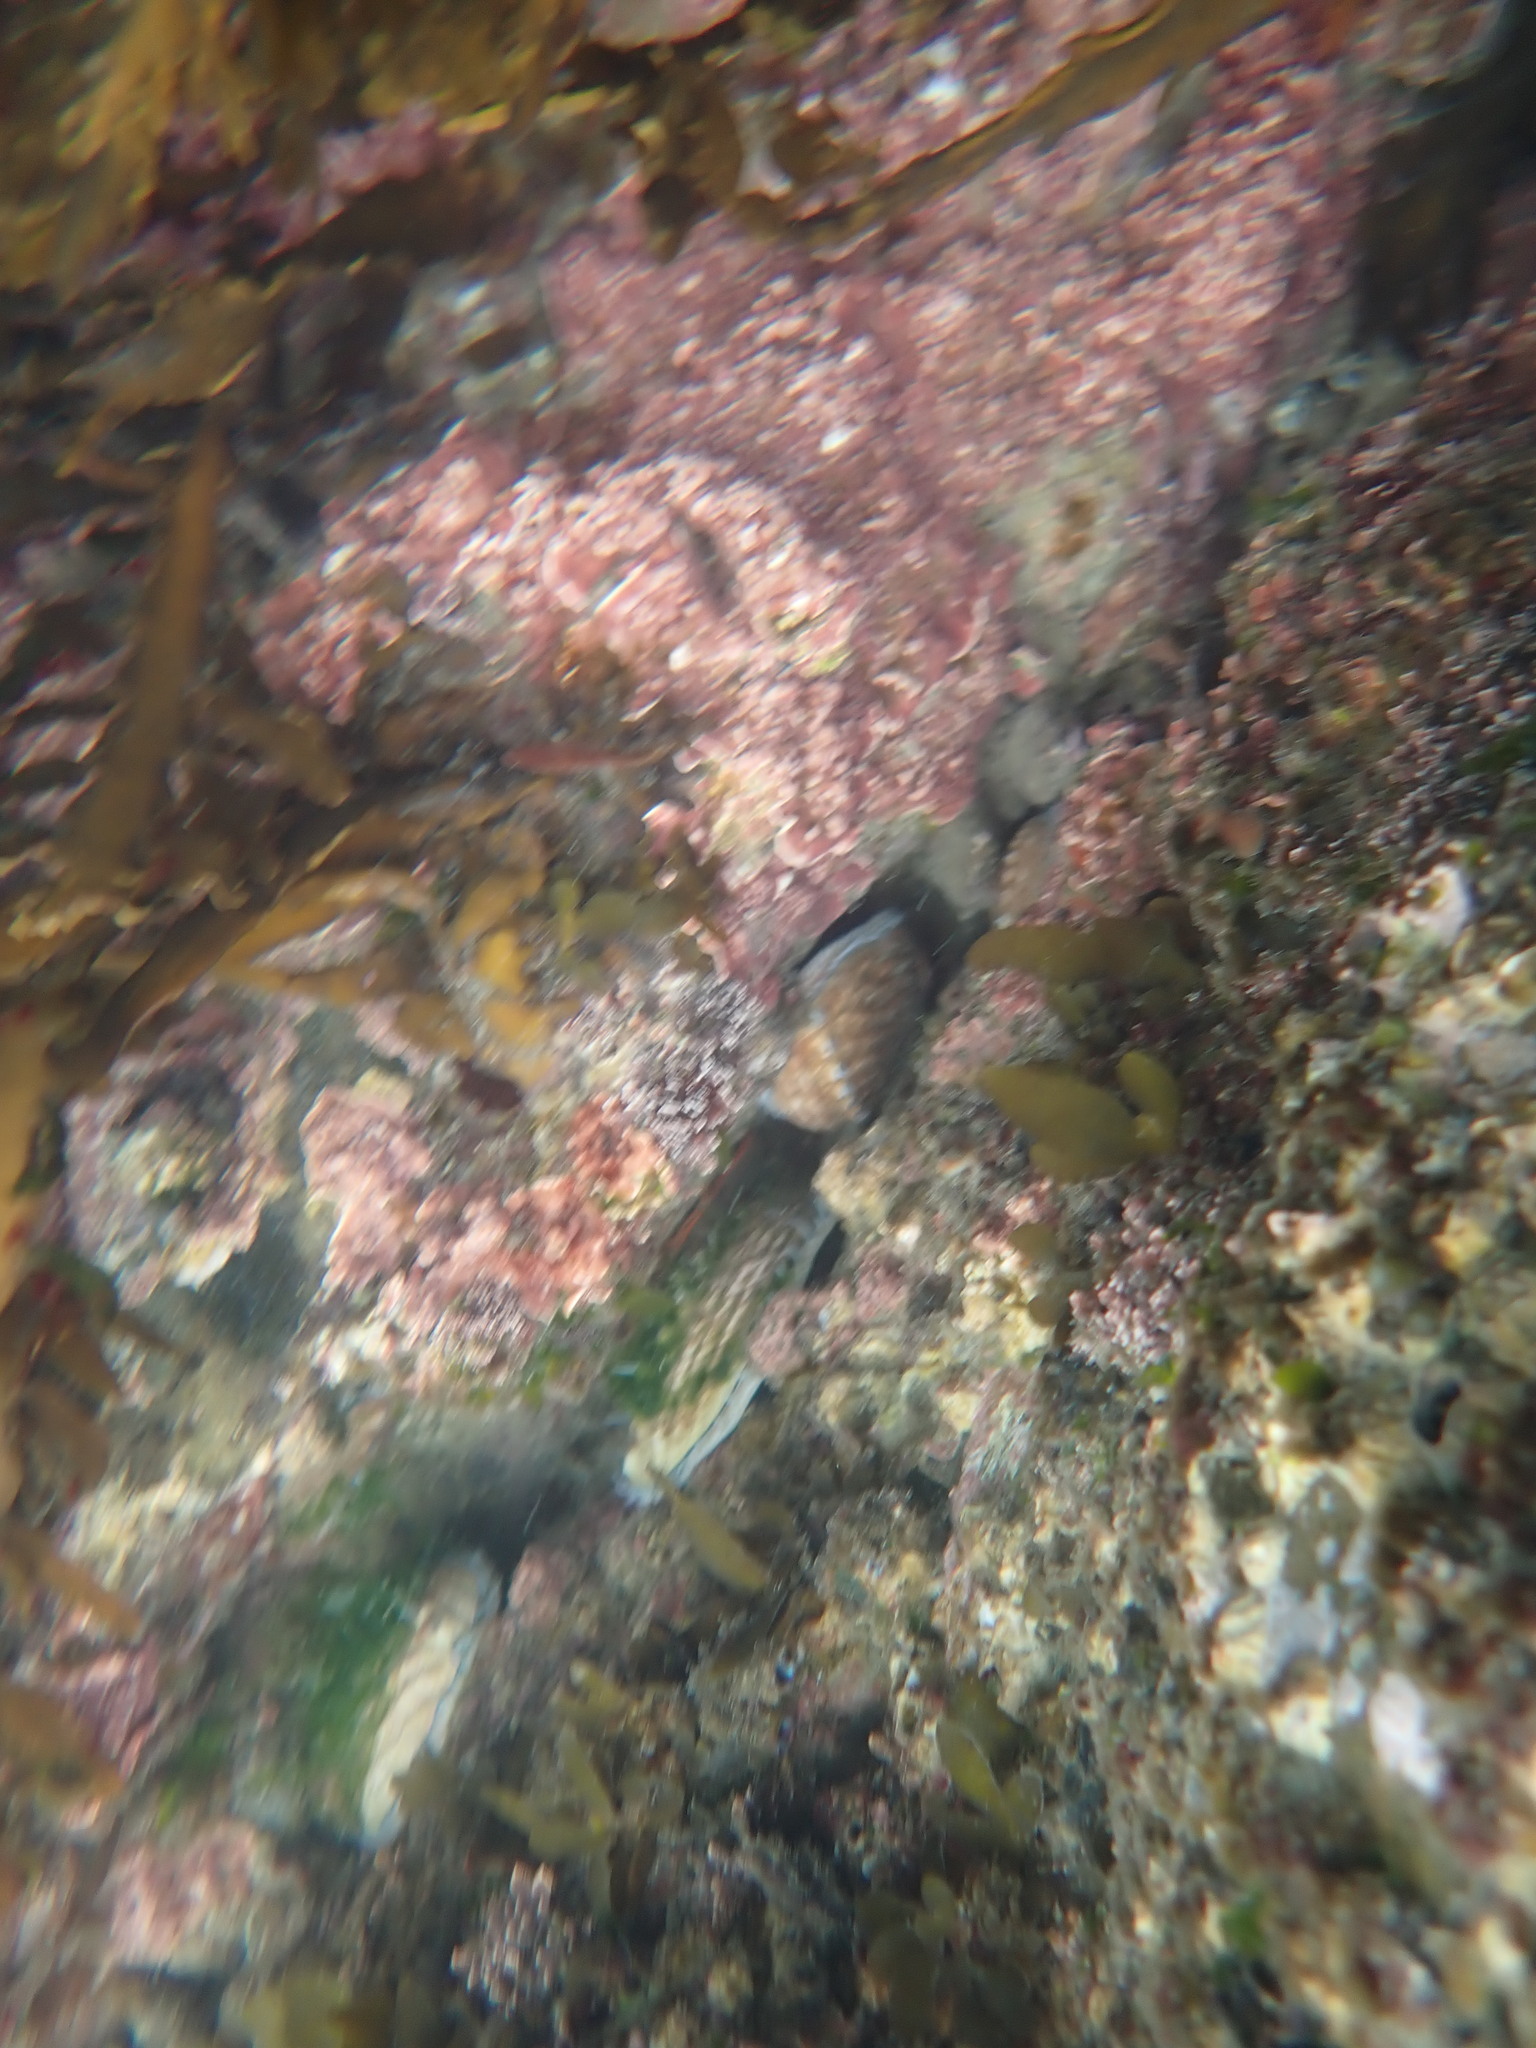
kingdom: Animalia
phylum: Mollusca
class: Gastropoda
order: Lepetellida
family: Haliotidae
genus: Haliotis
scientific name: Haliotis australis
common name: Silver abalone
